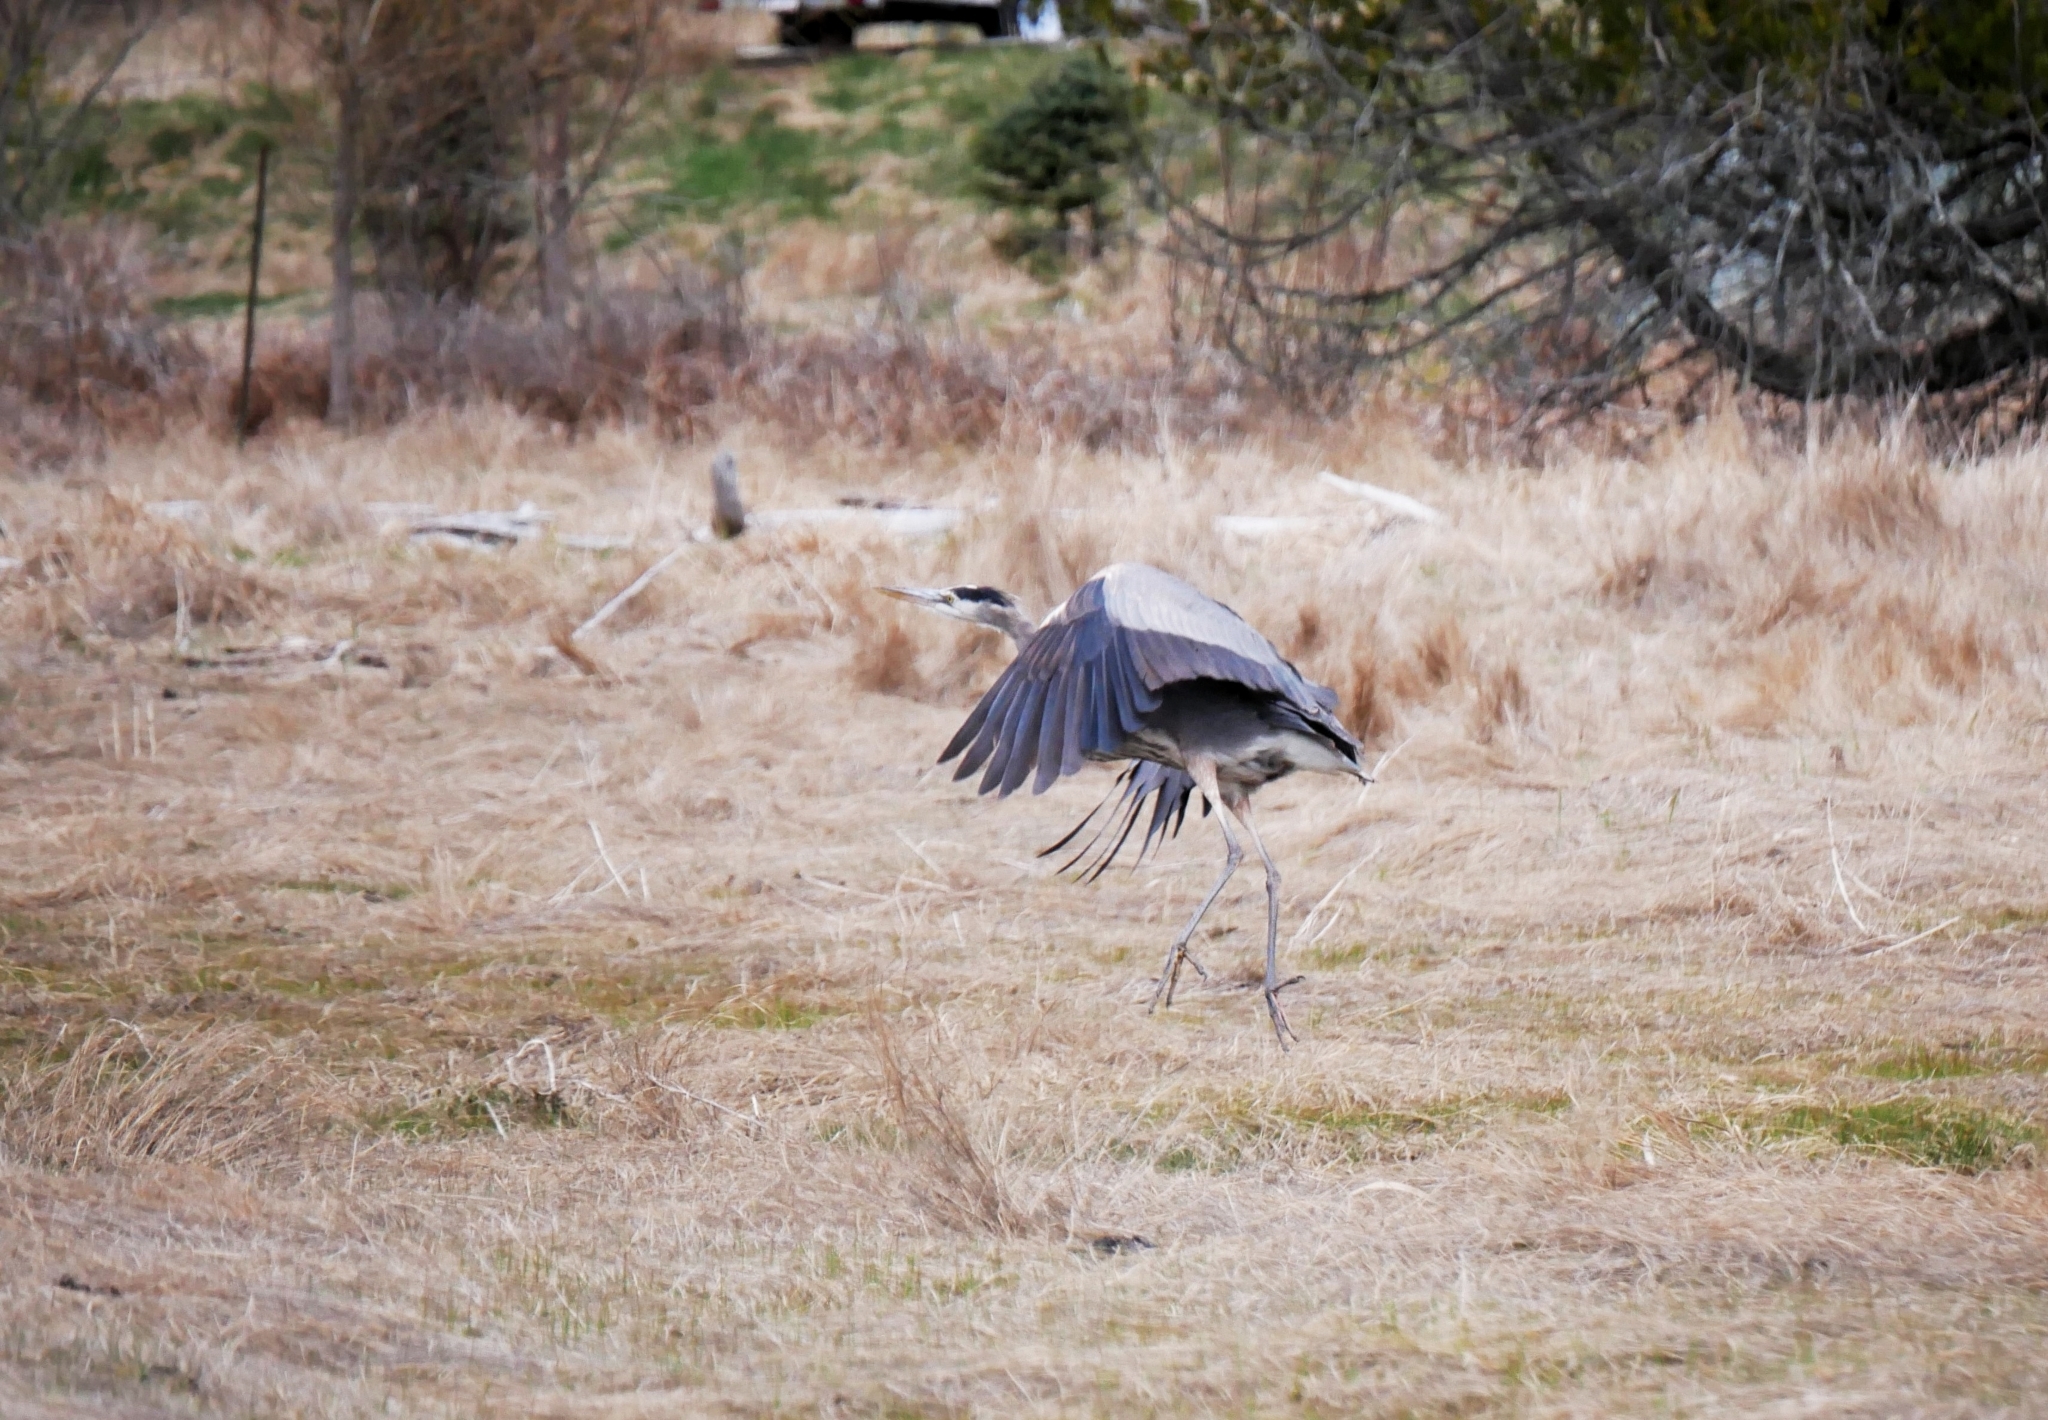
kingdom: Animalia
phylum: Chordata
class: Aves
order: Pelecaniformes
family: Ardeidae
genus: Ardea
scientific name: Ardea herodias
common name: Great blue heron
